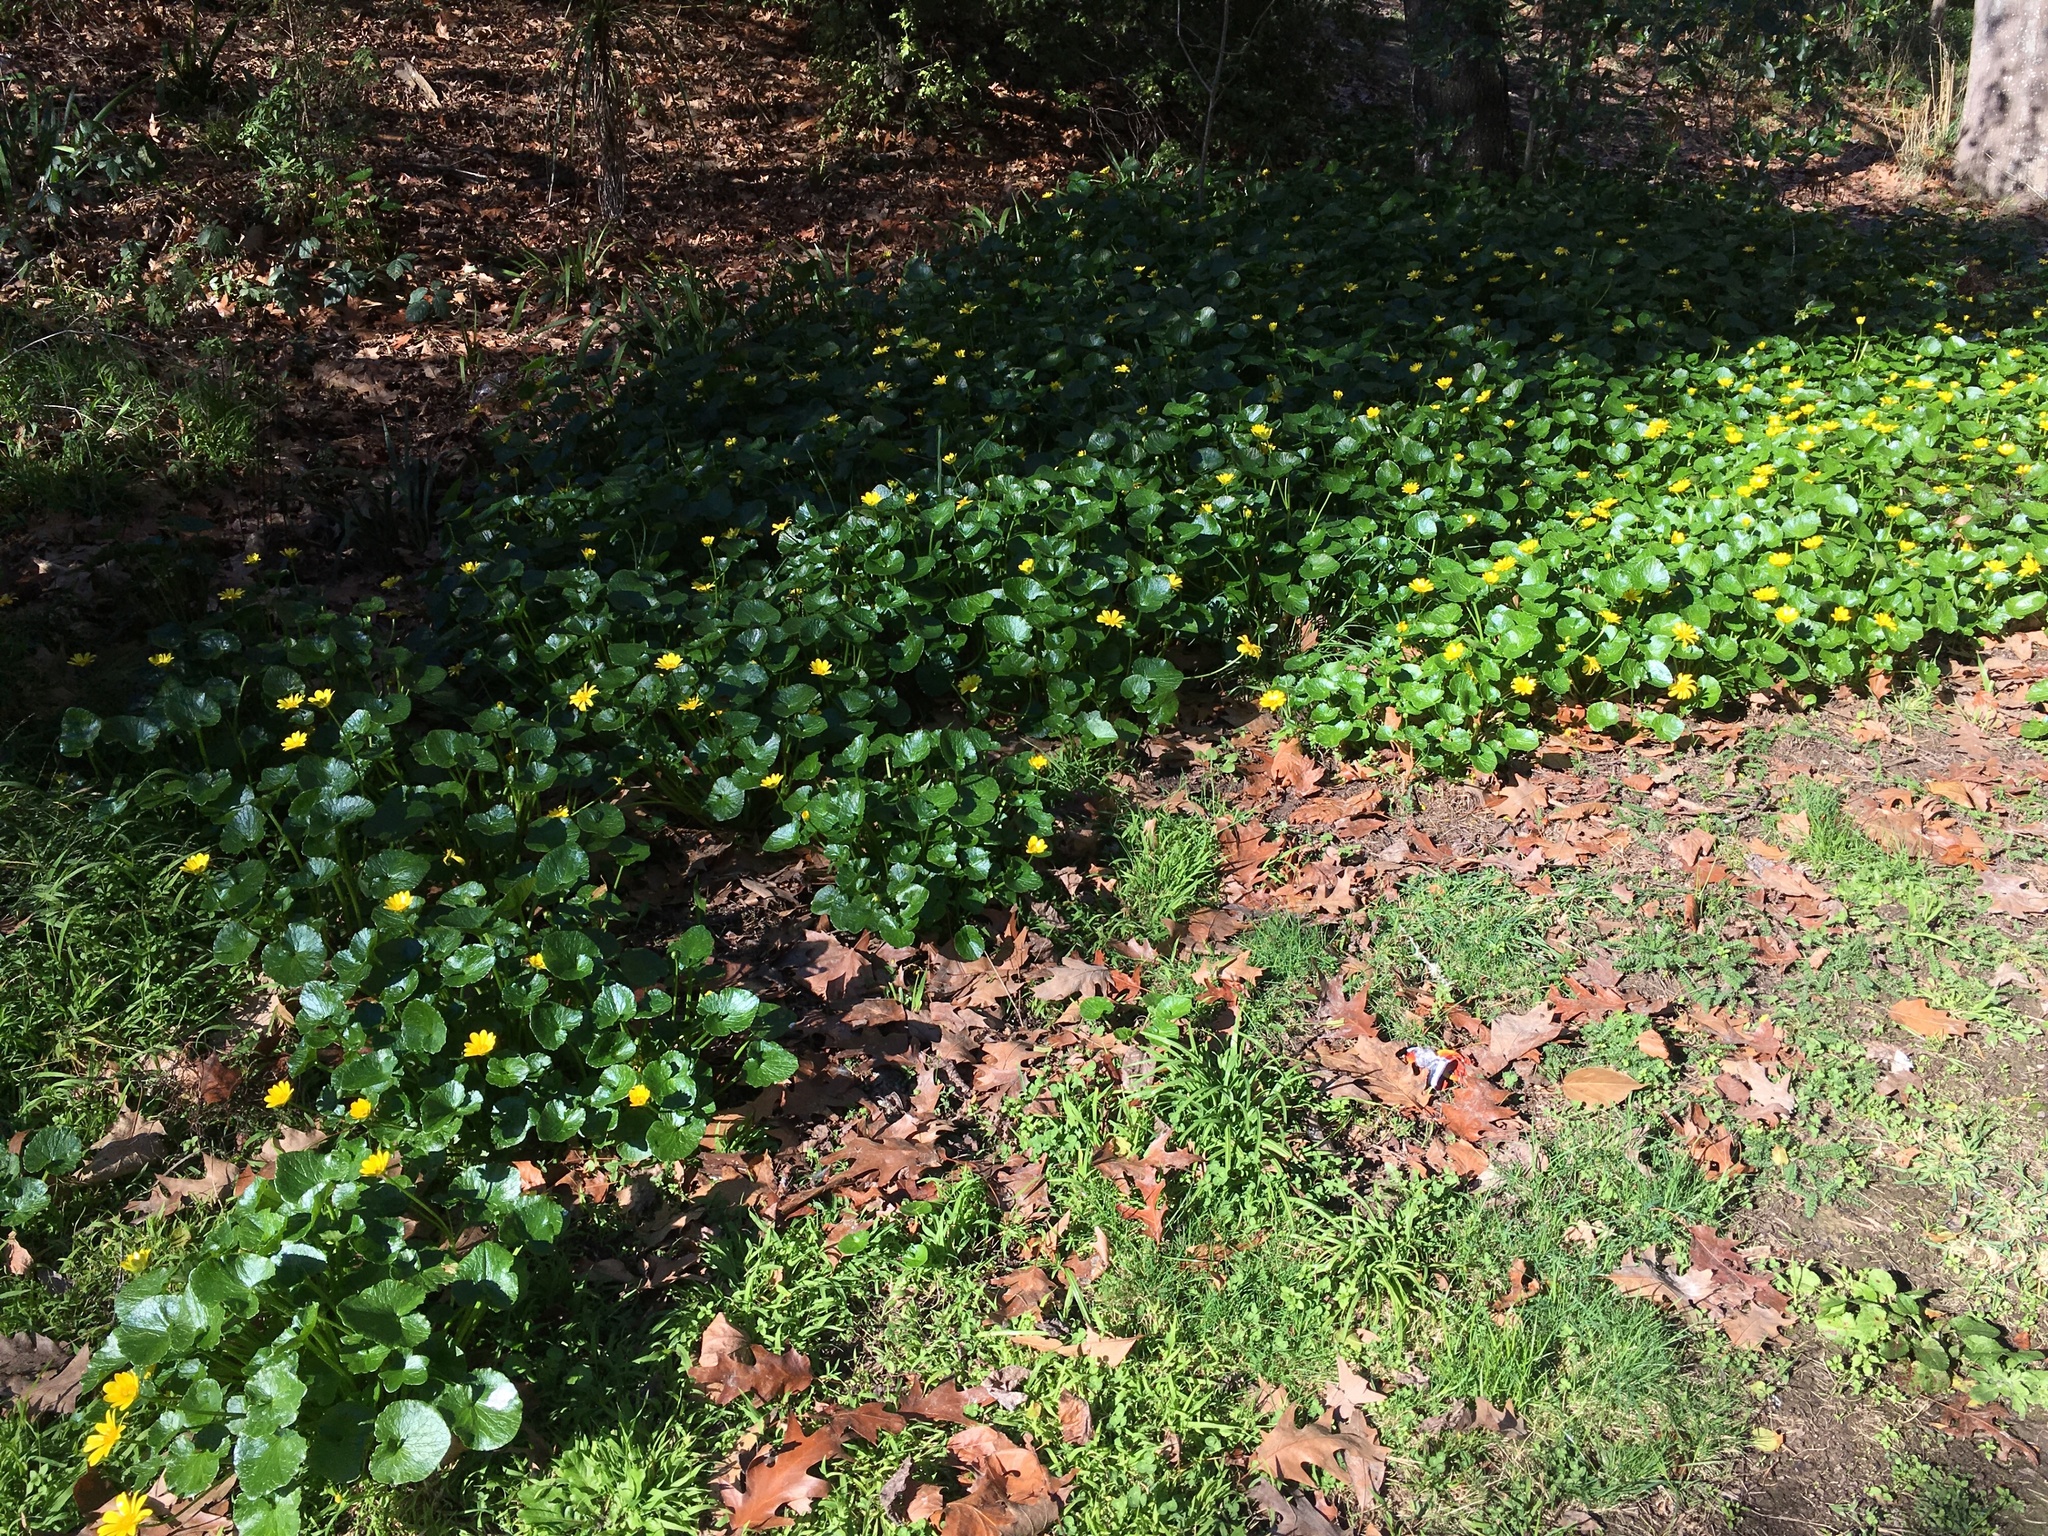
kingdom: Plantae
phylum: Tracheophyta
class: Magnoliopsida
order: Ranunculales
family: Ranunculaceae
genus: Ficaria
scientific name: Ficaria grandiflora
